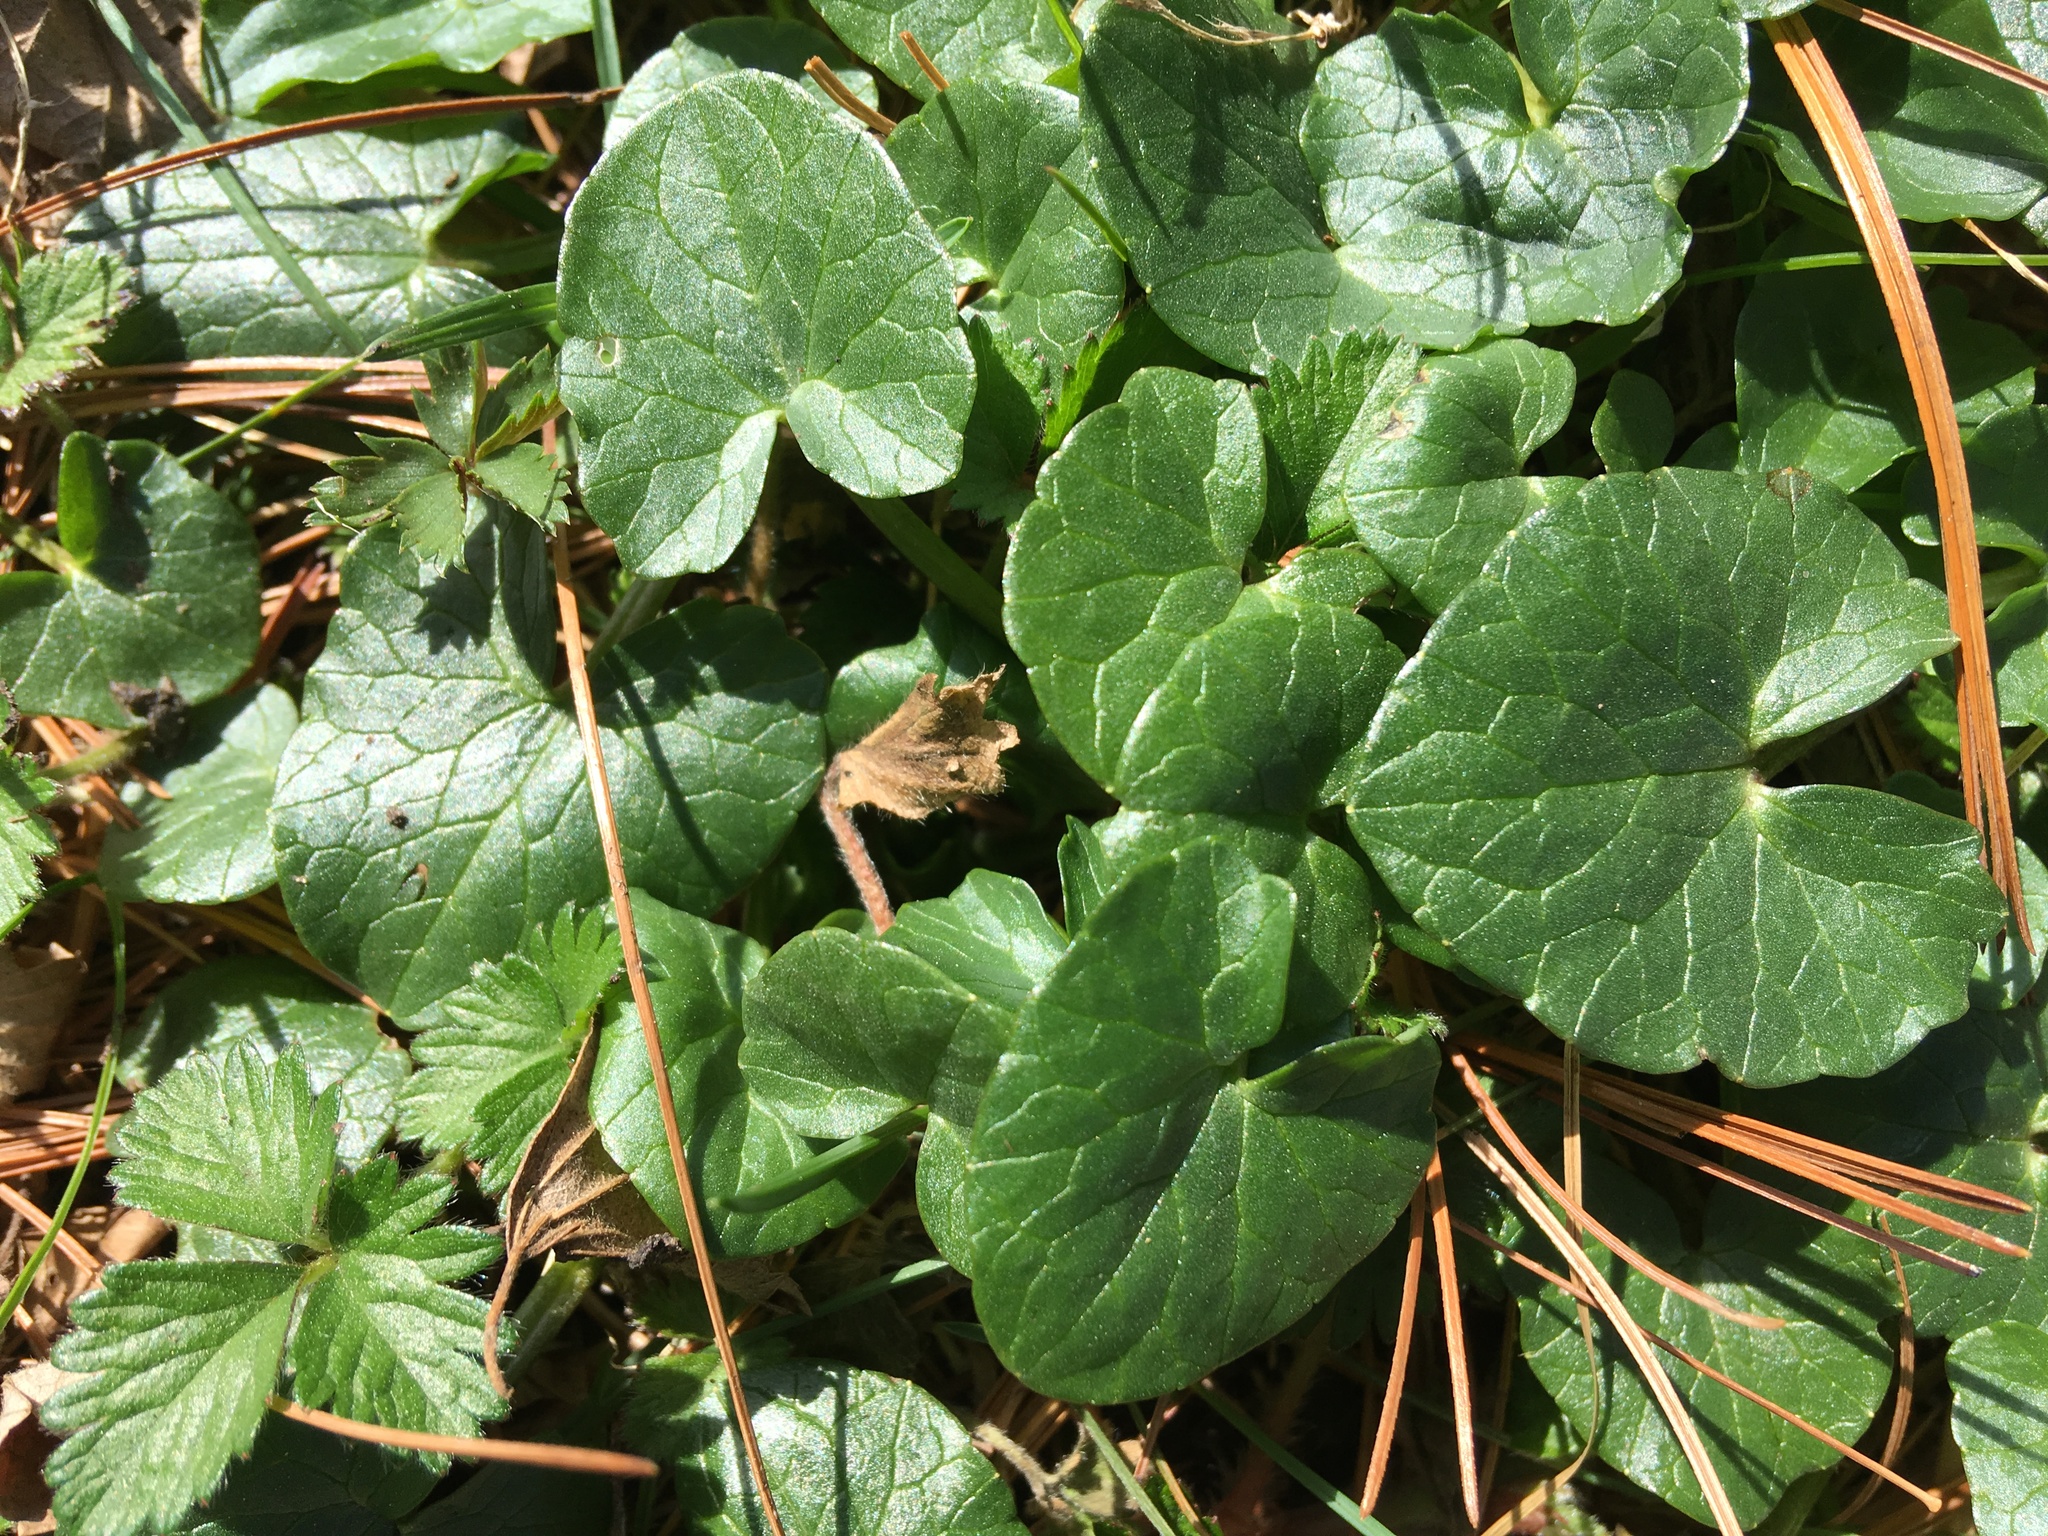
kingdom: Plantae
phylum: Tracheophyta
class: Magnoliopsida
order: Ranunculales
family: Ranunculaceae
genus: Ficaria
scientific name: Ficaria verna
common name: Lesser celandine
